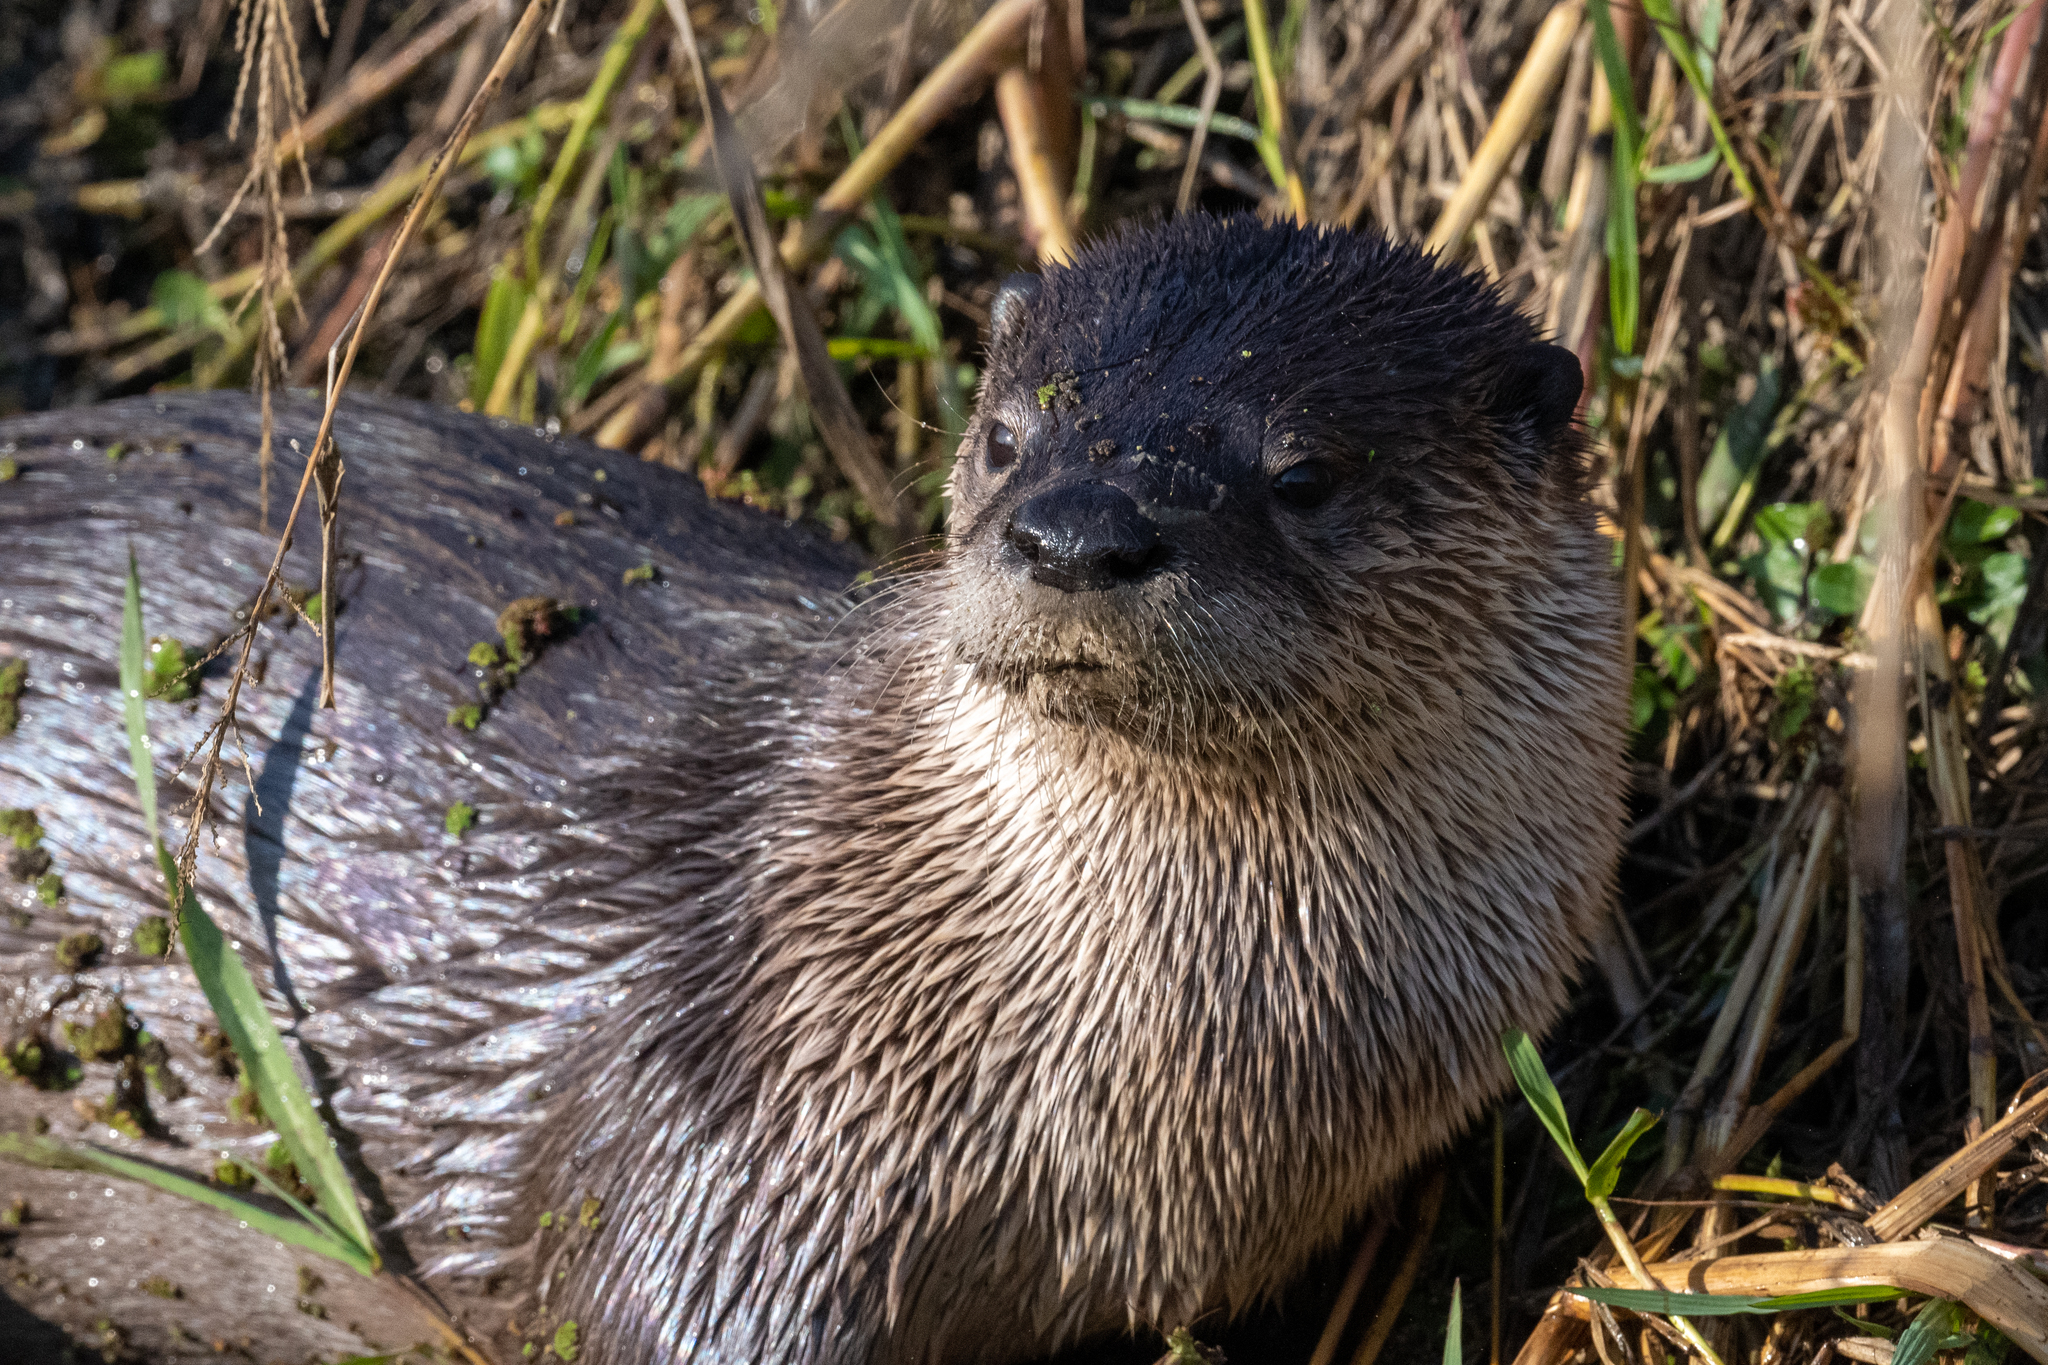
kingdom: Animalia
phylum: Chordata
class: Mammalia
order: Carnivora
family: Mustelidae
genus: Lontra
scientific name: Lontra canadensis
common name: North american river otter
